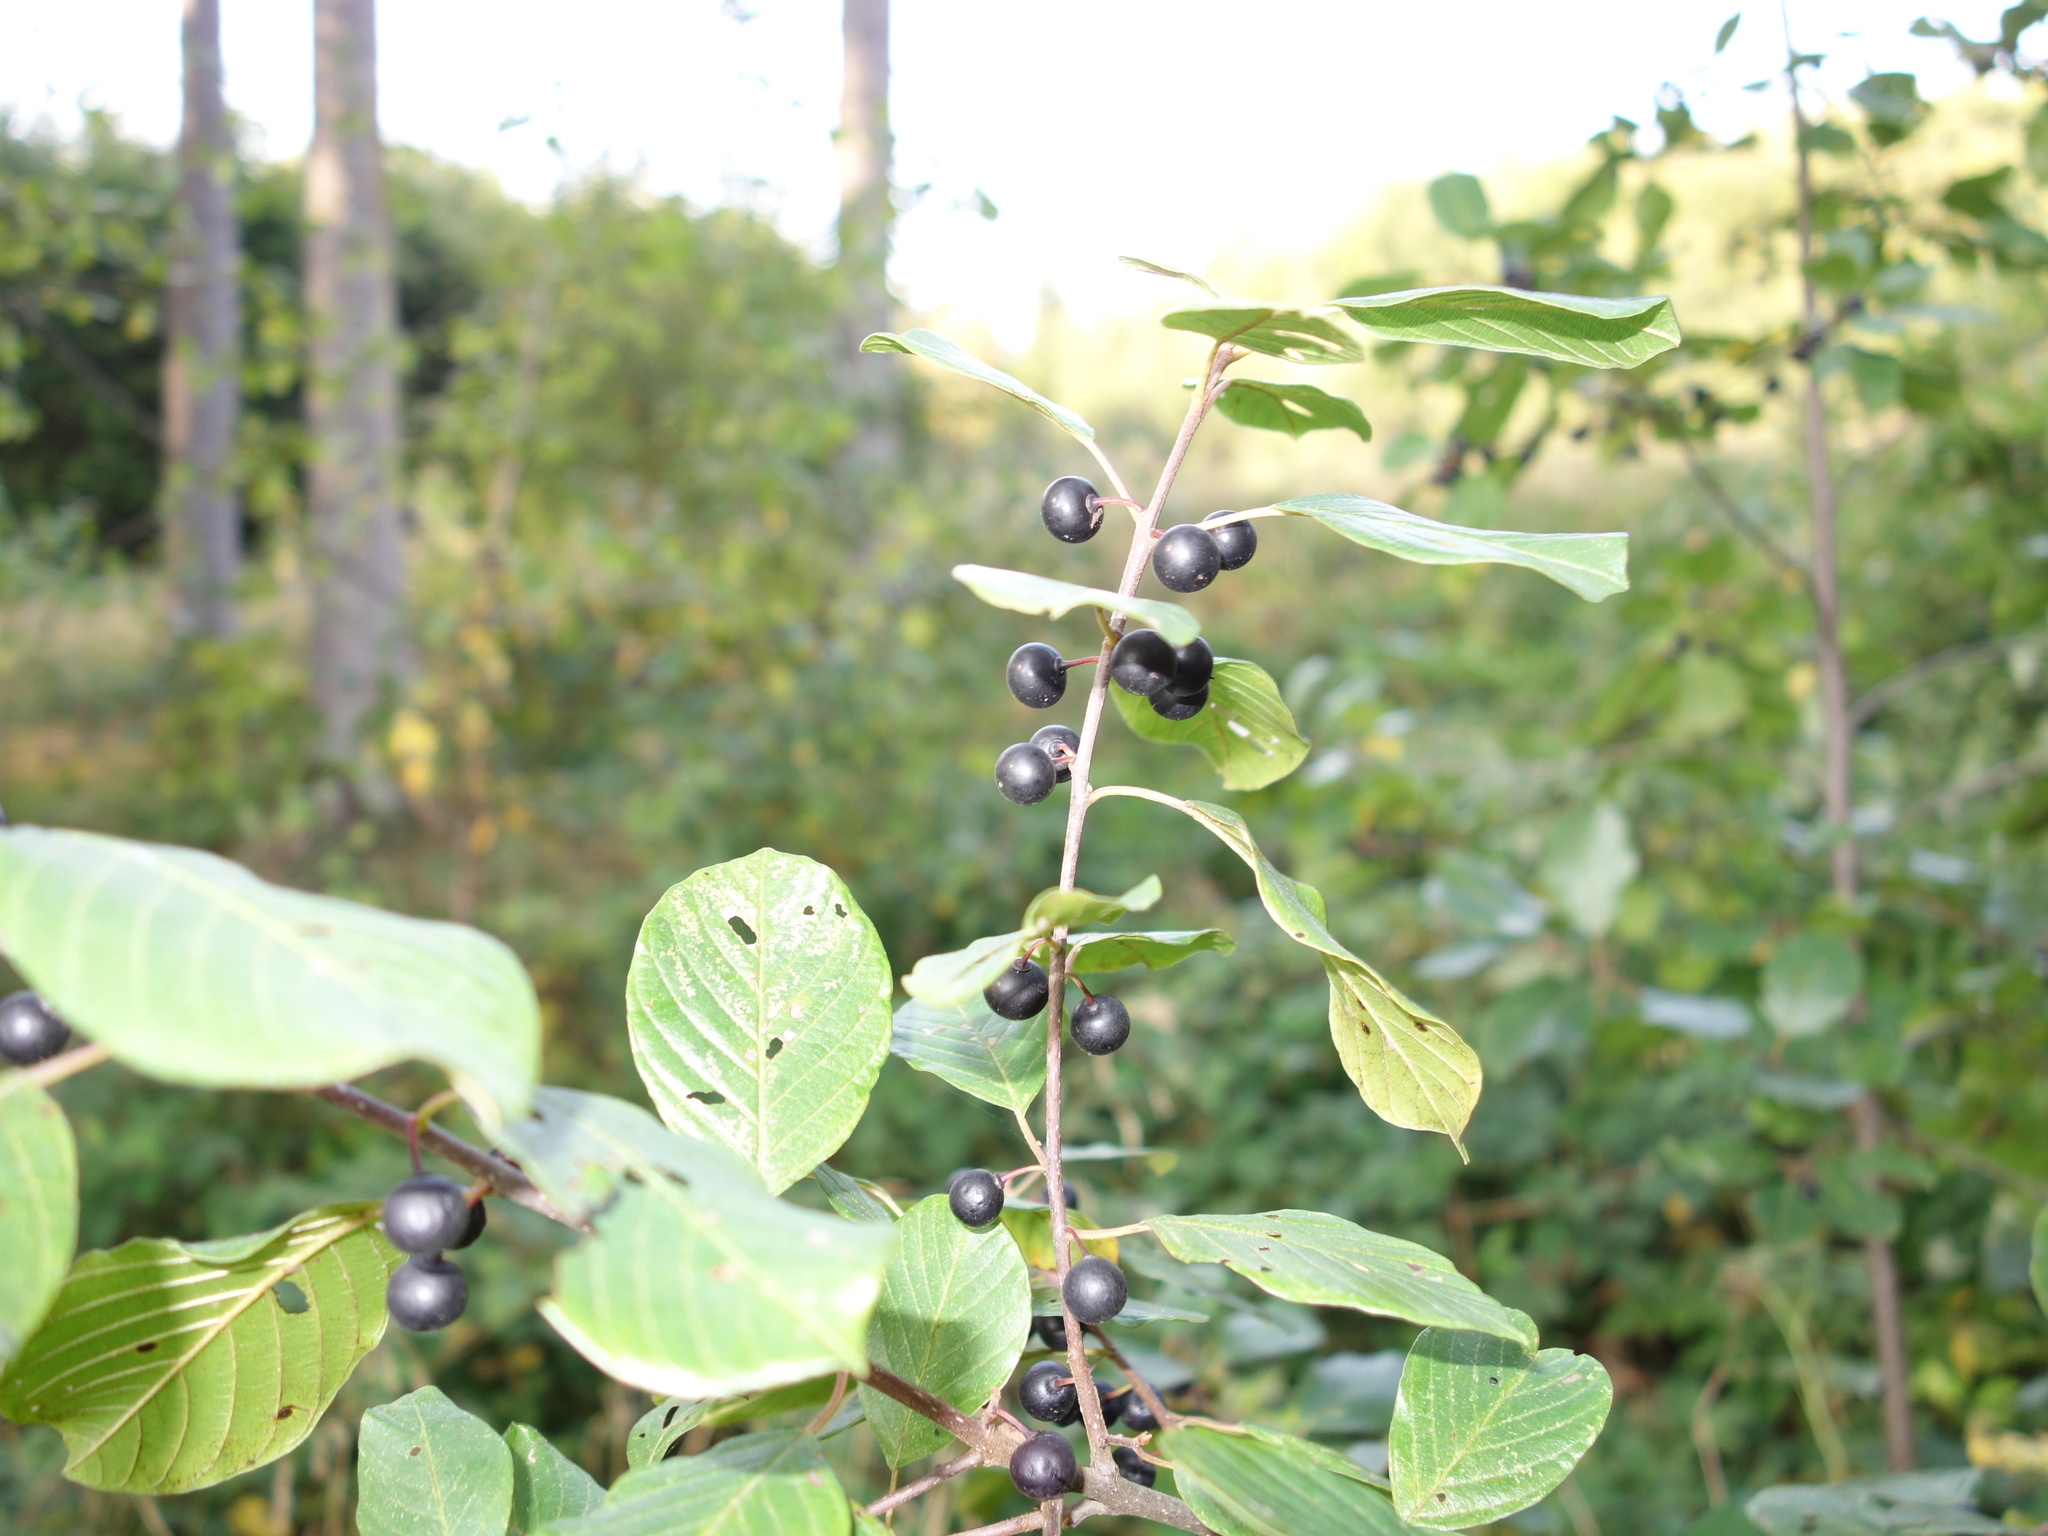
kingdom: Plantae
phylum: Tracheophyta
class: Magnoliopsida
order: Rosales
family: Rhamnaceae
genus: Frangula
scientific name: Frangula alnus
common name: Alder buckthorn
